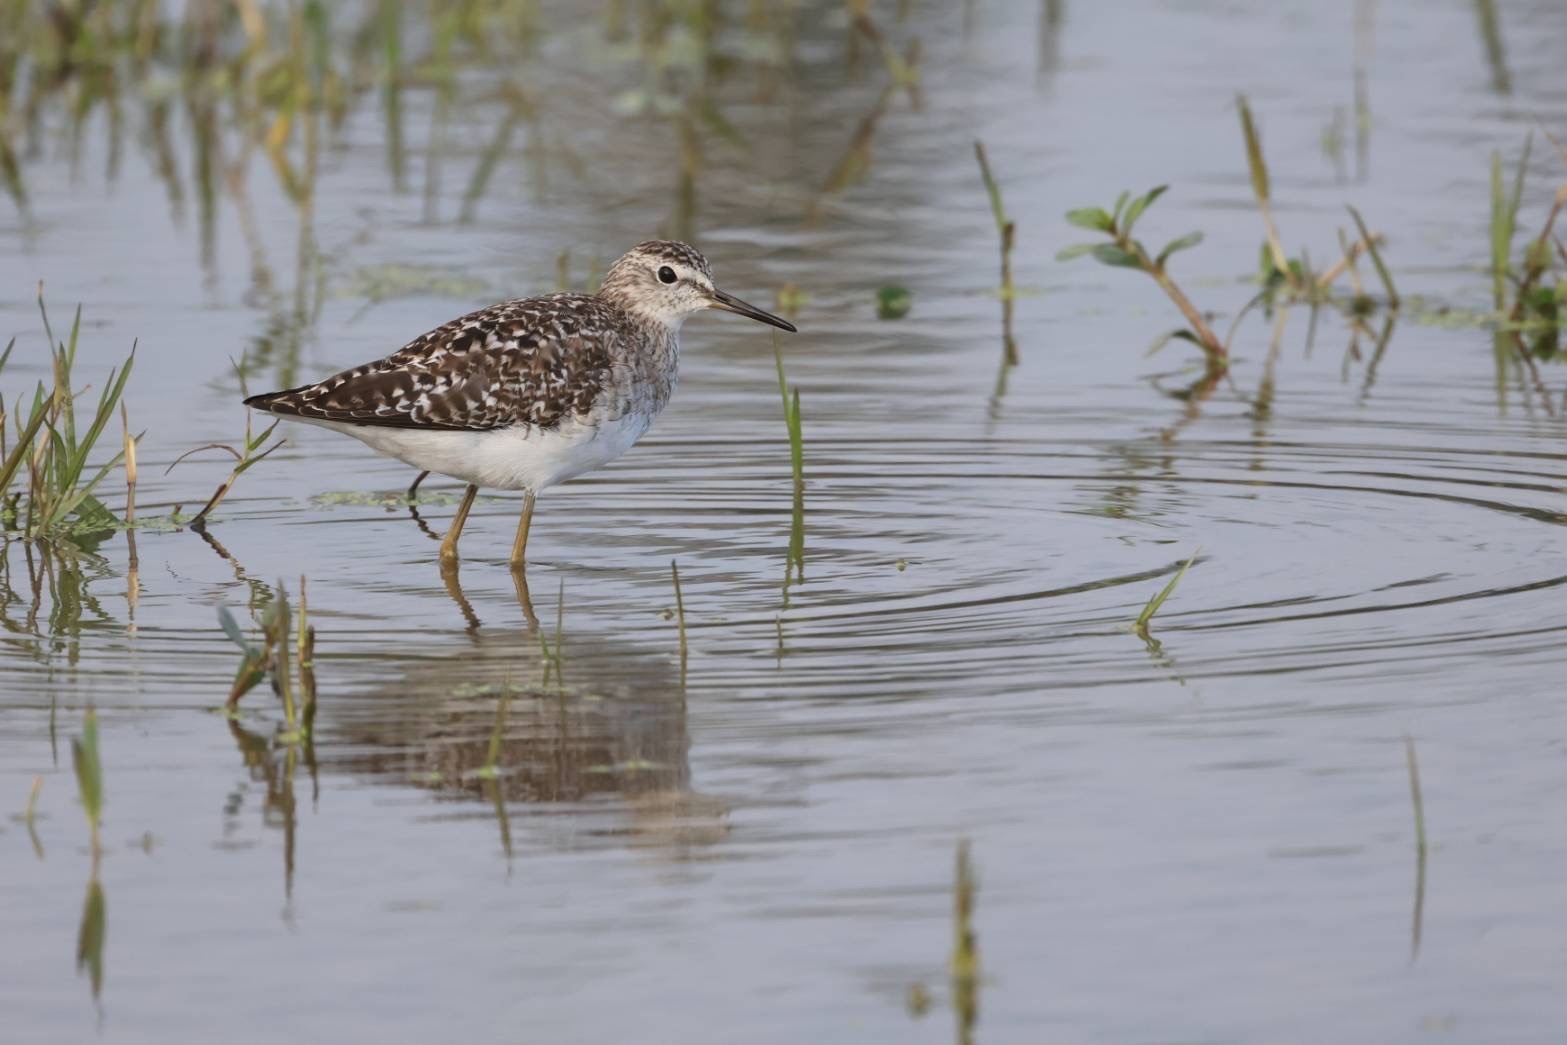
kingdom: Animalia
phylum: Chordata
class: Aves
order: Charadriiformes
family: Scolopacidae
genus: Tringa
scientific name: Tringa glareola
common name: Wood sandpiper
